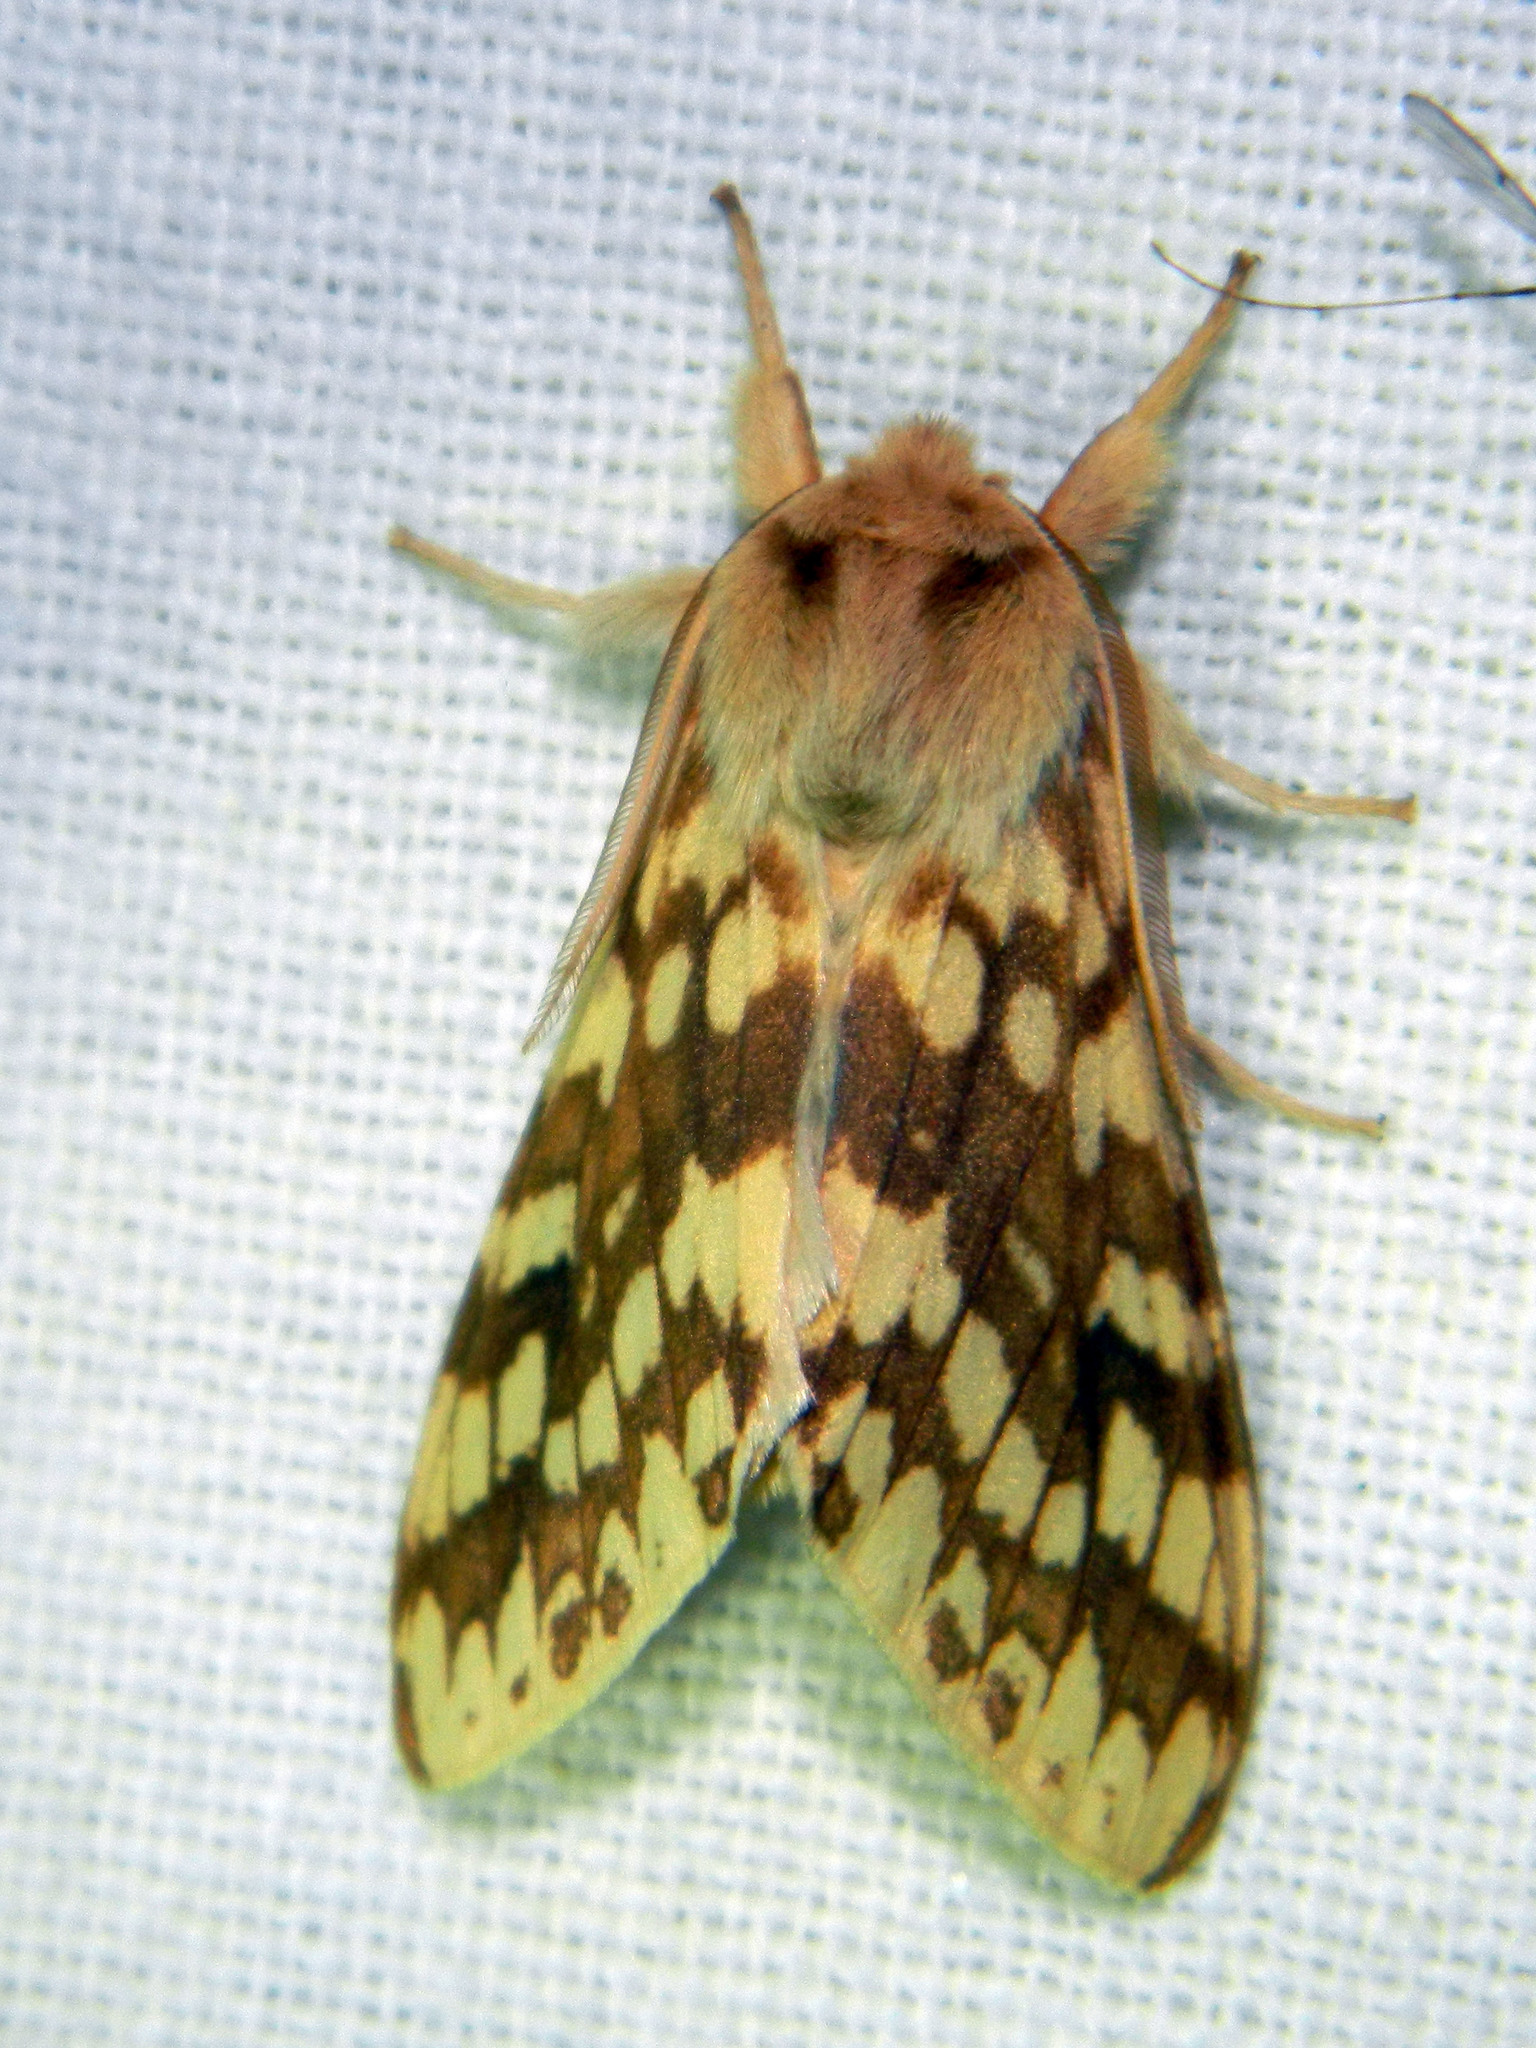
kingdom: Animalia
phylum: Arthropoda
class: Insecta
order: Lepidoptera
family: Erebidae
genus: Lophocampa
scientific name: Lophocampa maculata
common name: Spotted tussock moth
